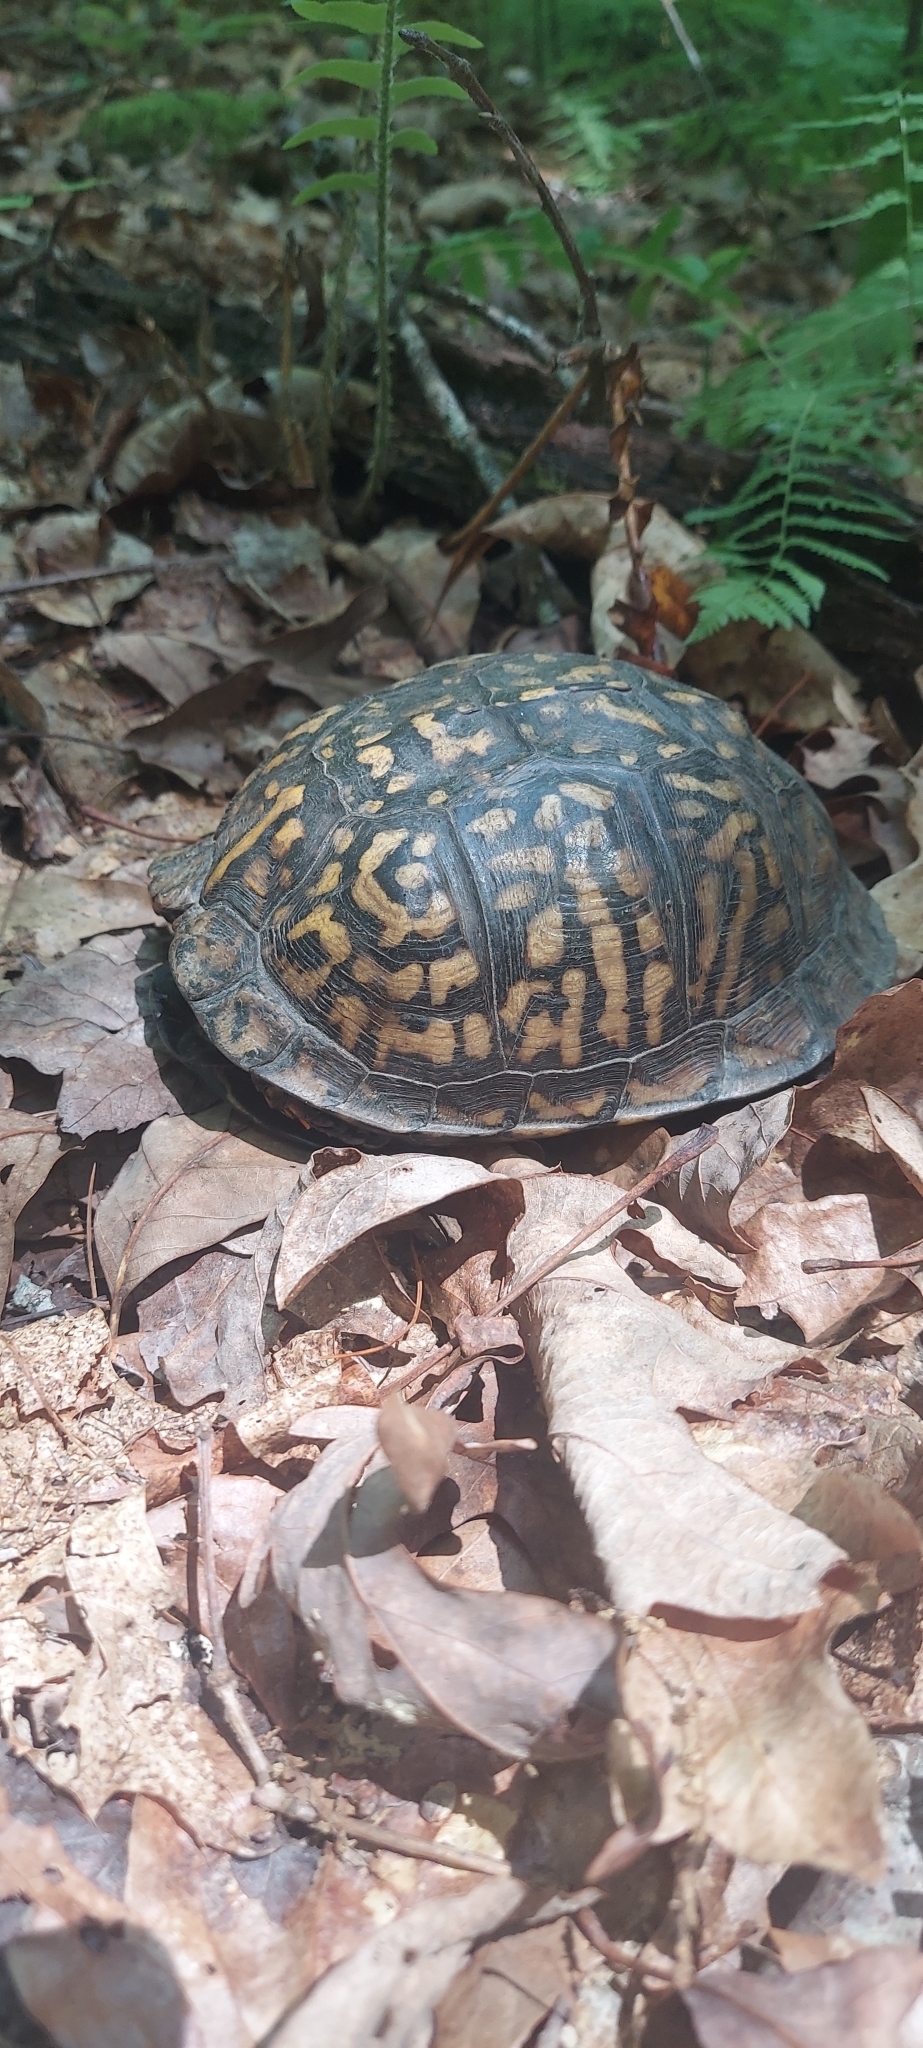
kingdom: Animalia
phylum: Chordata
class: Testudines
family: Emydidae
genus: Terrapene
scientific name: Terrapene carolina
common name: Common box turtle
